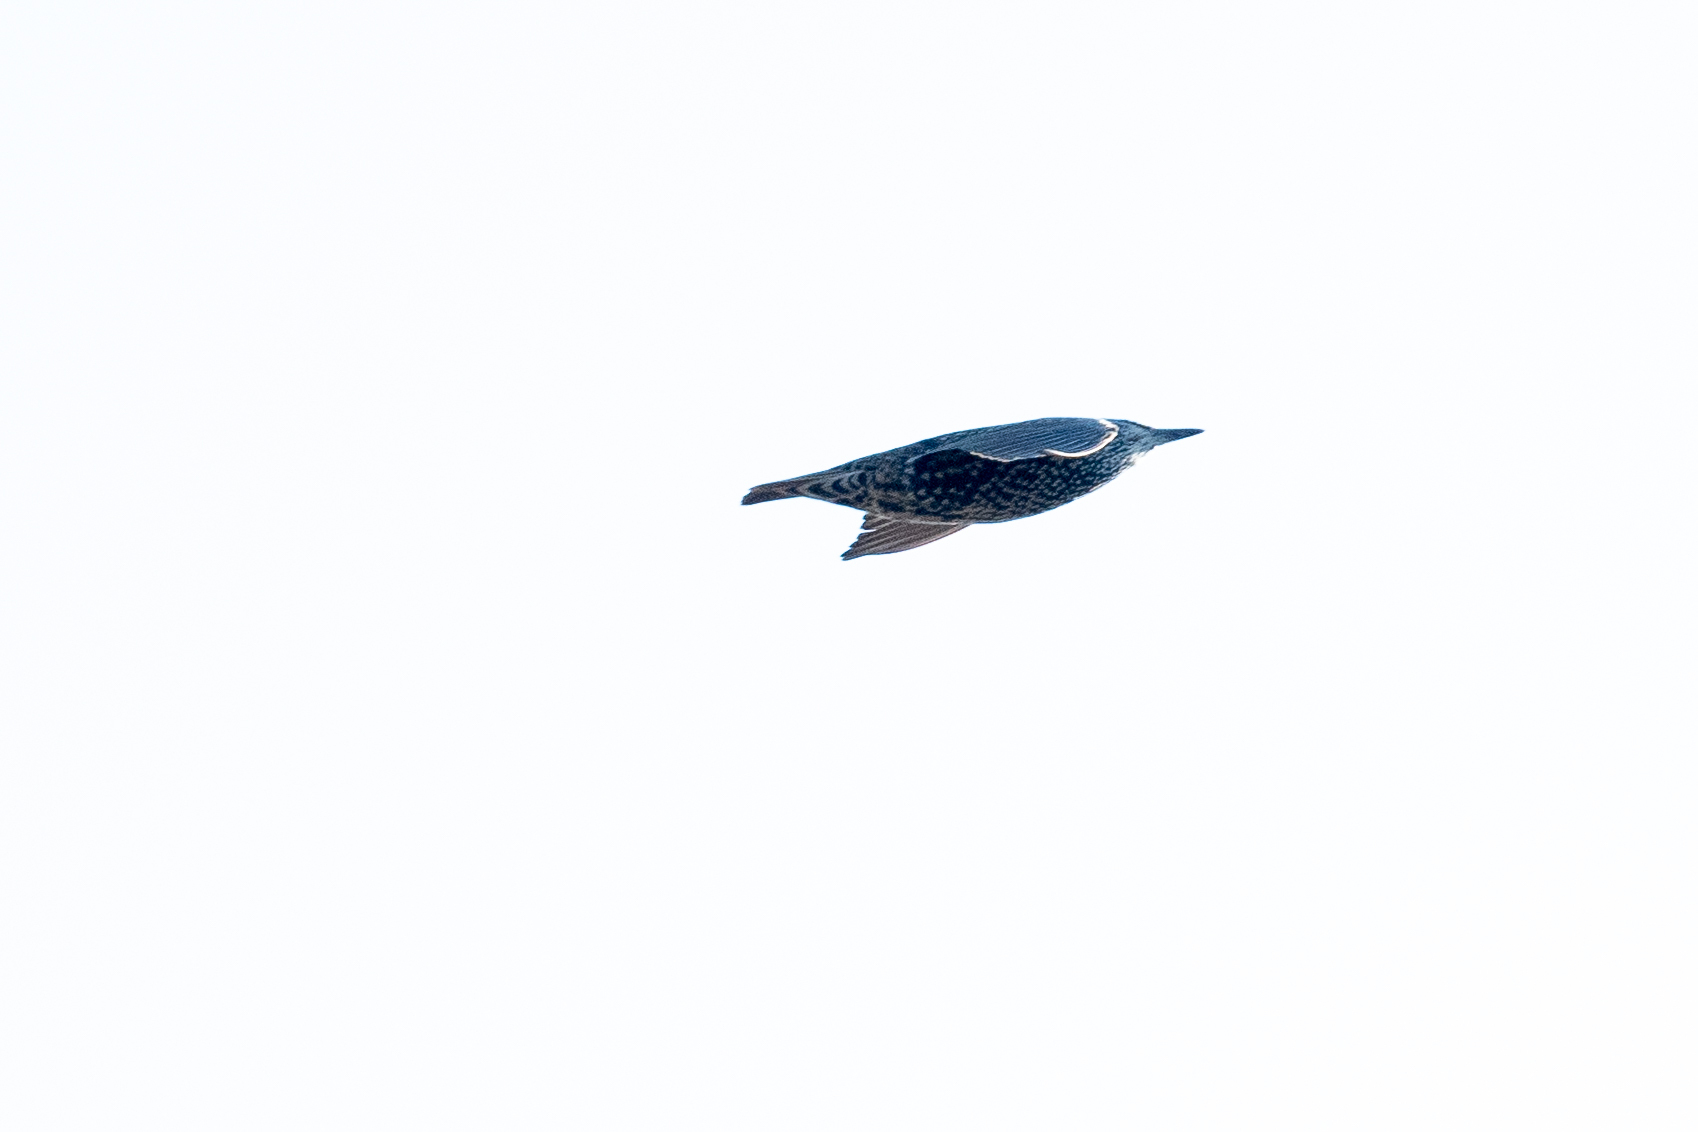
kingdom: Animalia
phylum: Chordata
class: Aves
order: Passeriformes
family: Sturnidae
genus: Sturnus
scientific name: Sturnus vulgaris
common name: Common starling
